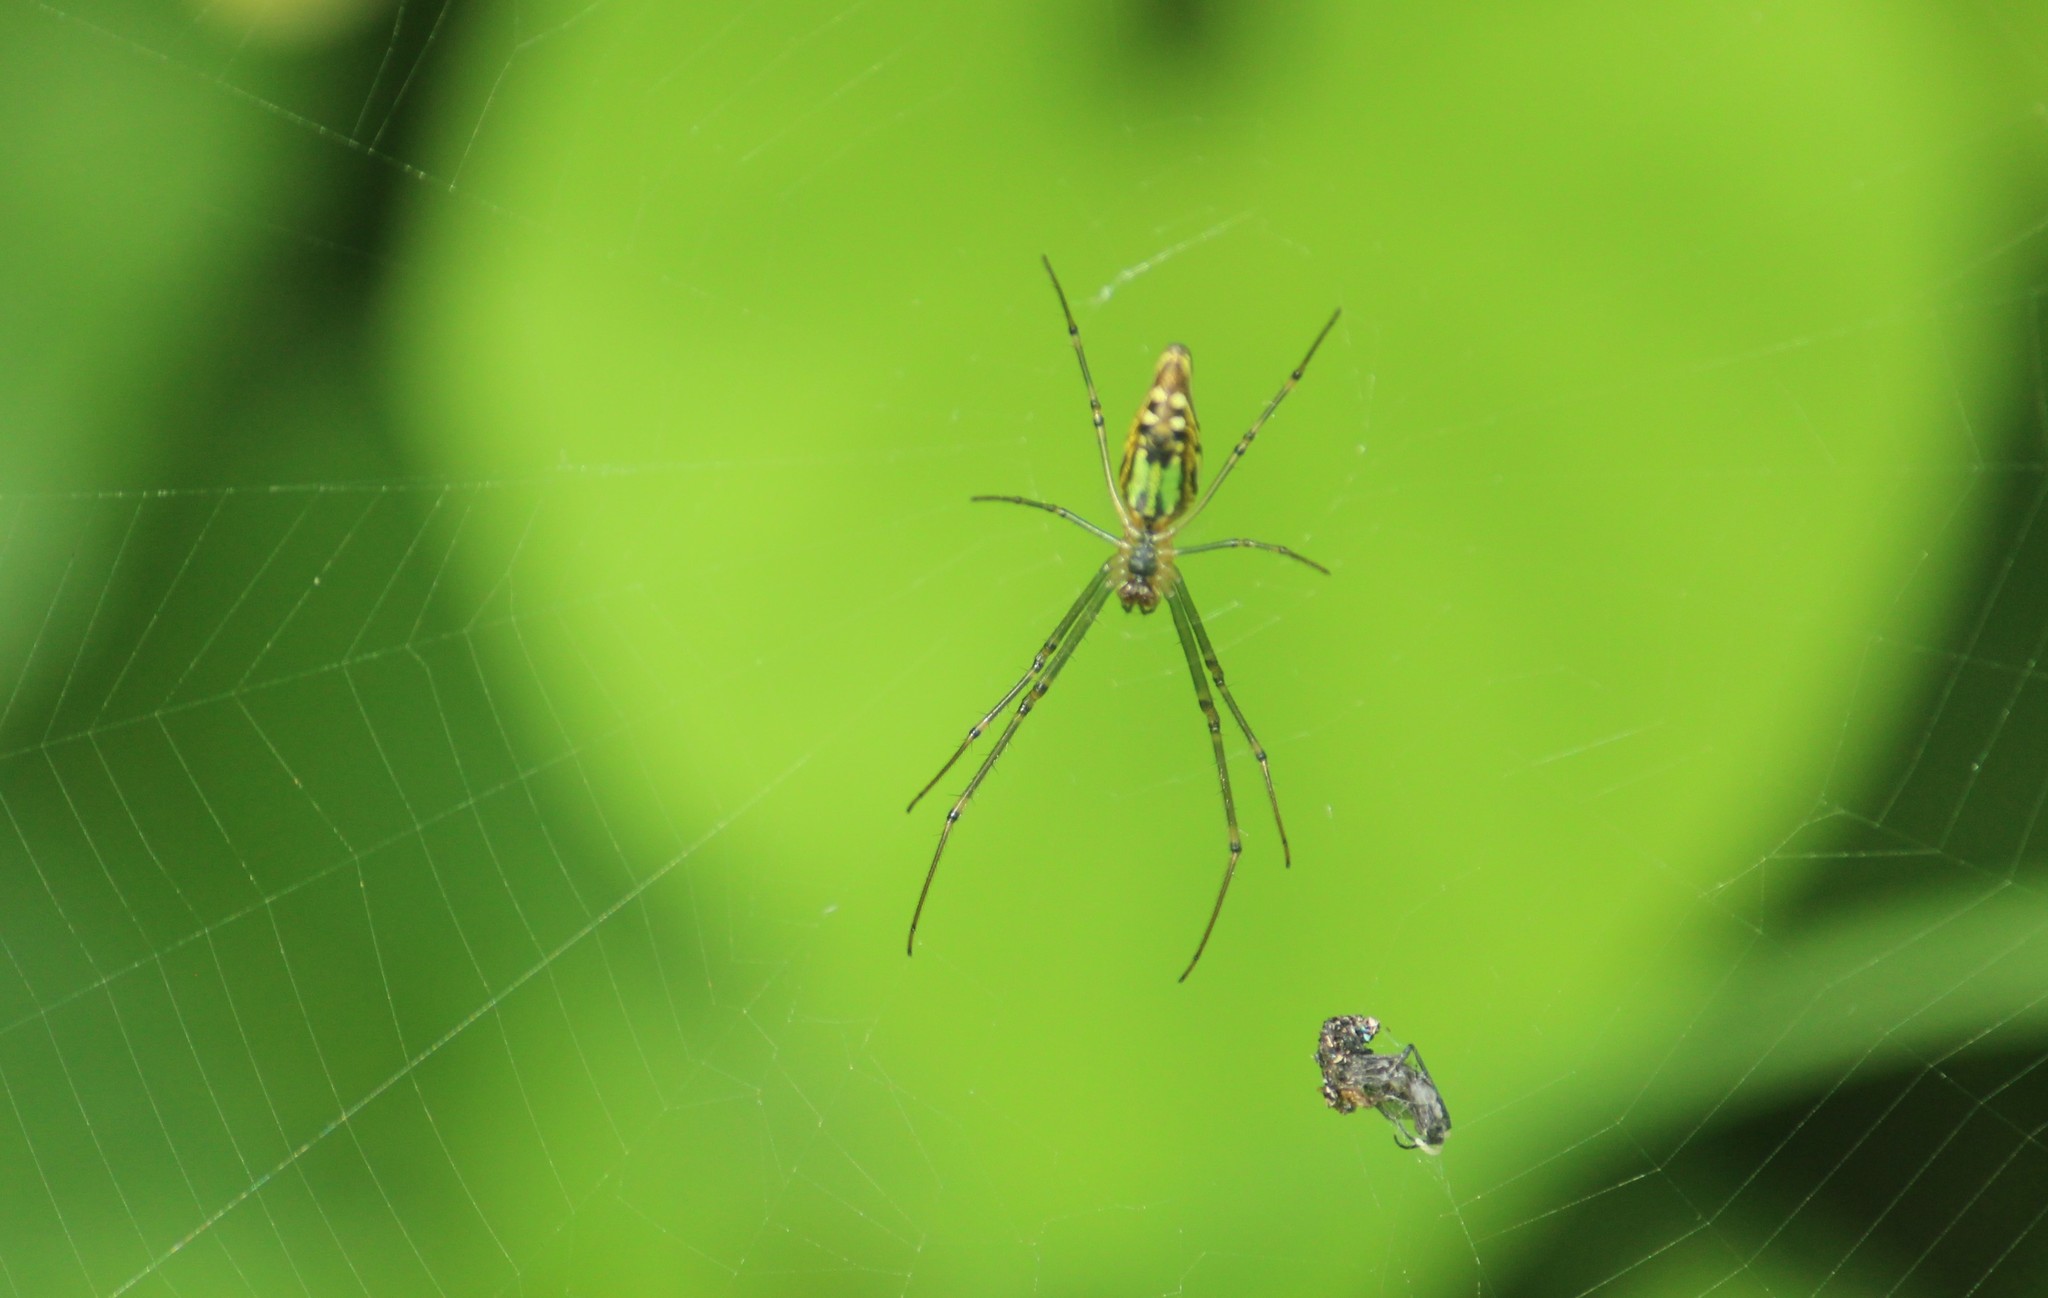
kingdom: Animalia
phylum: Arthropoda
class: Arachnida
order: Araneae
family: Tetragnathidae
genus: Leucauge
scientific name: Leucauge decorata
